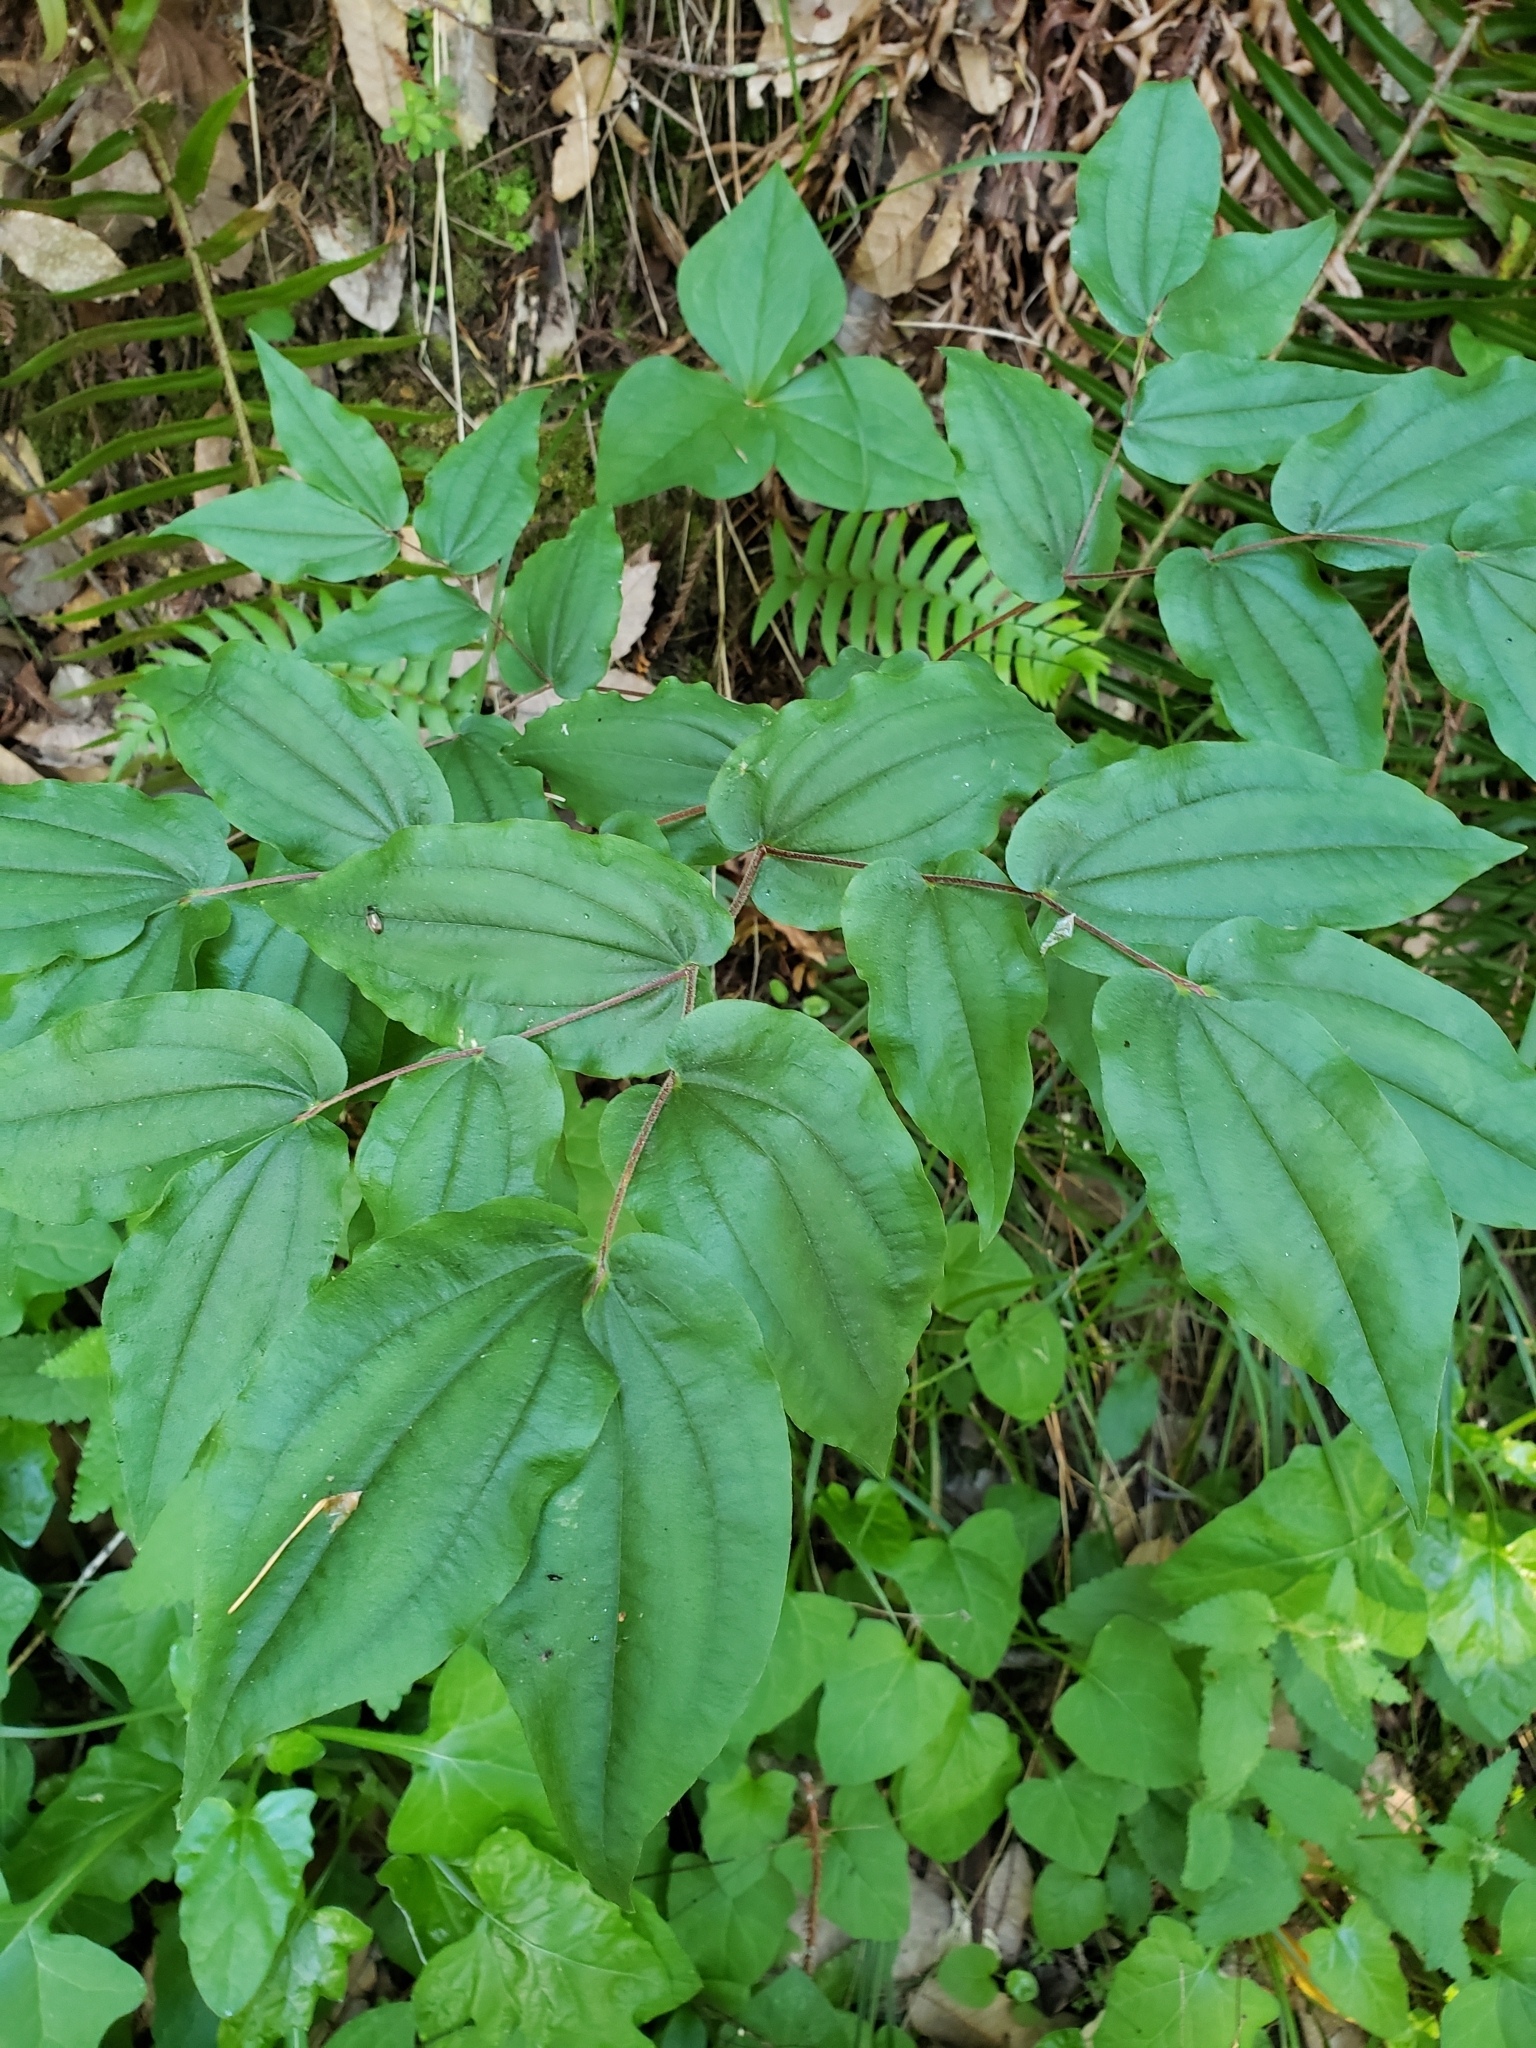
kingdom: Plantae
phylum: Tracheophyta
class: Liliopsida
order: Liliales
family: Liliaceae
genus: Prosartes
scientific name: Prosartes hookeri
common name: Fairy-bells
